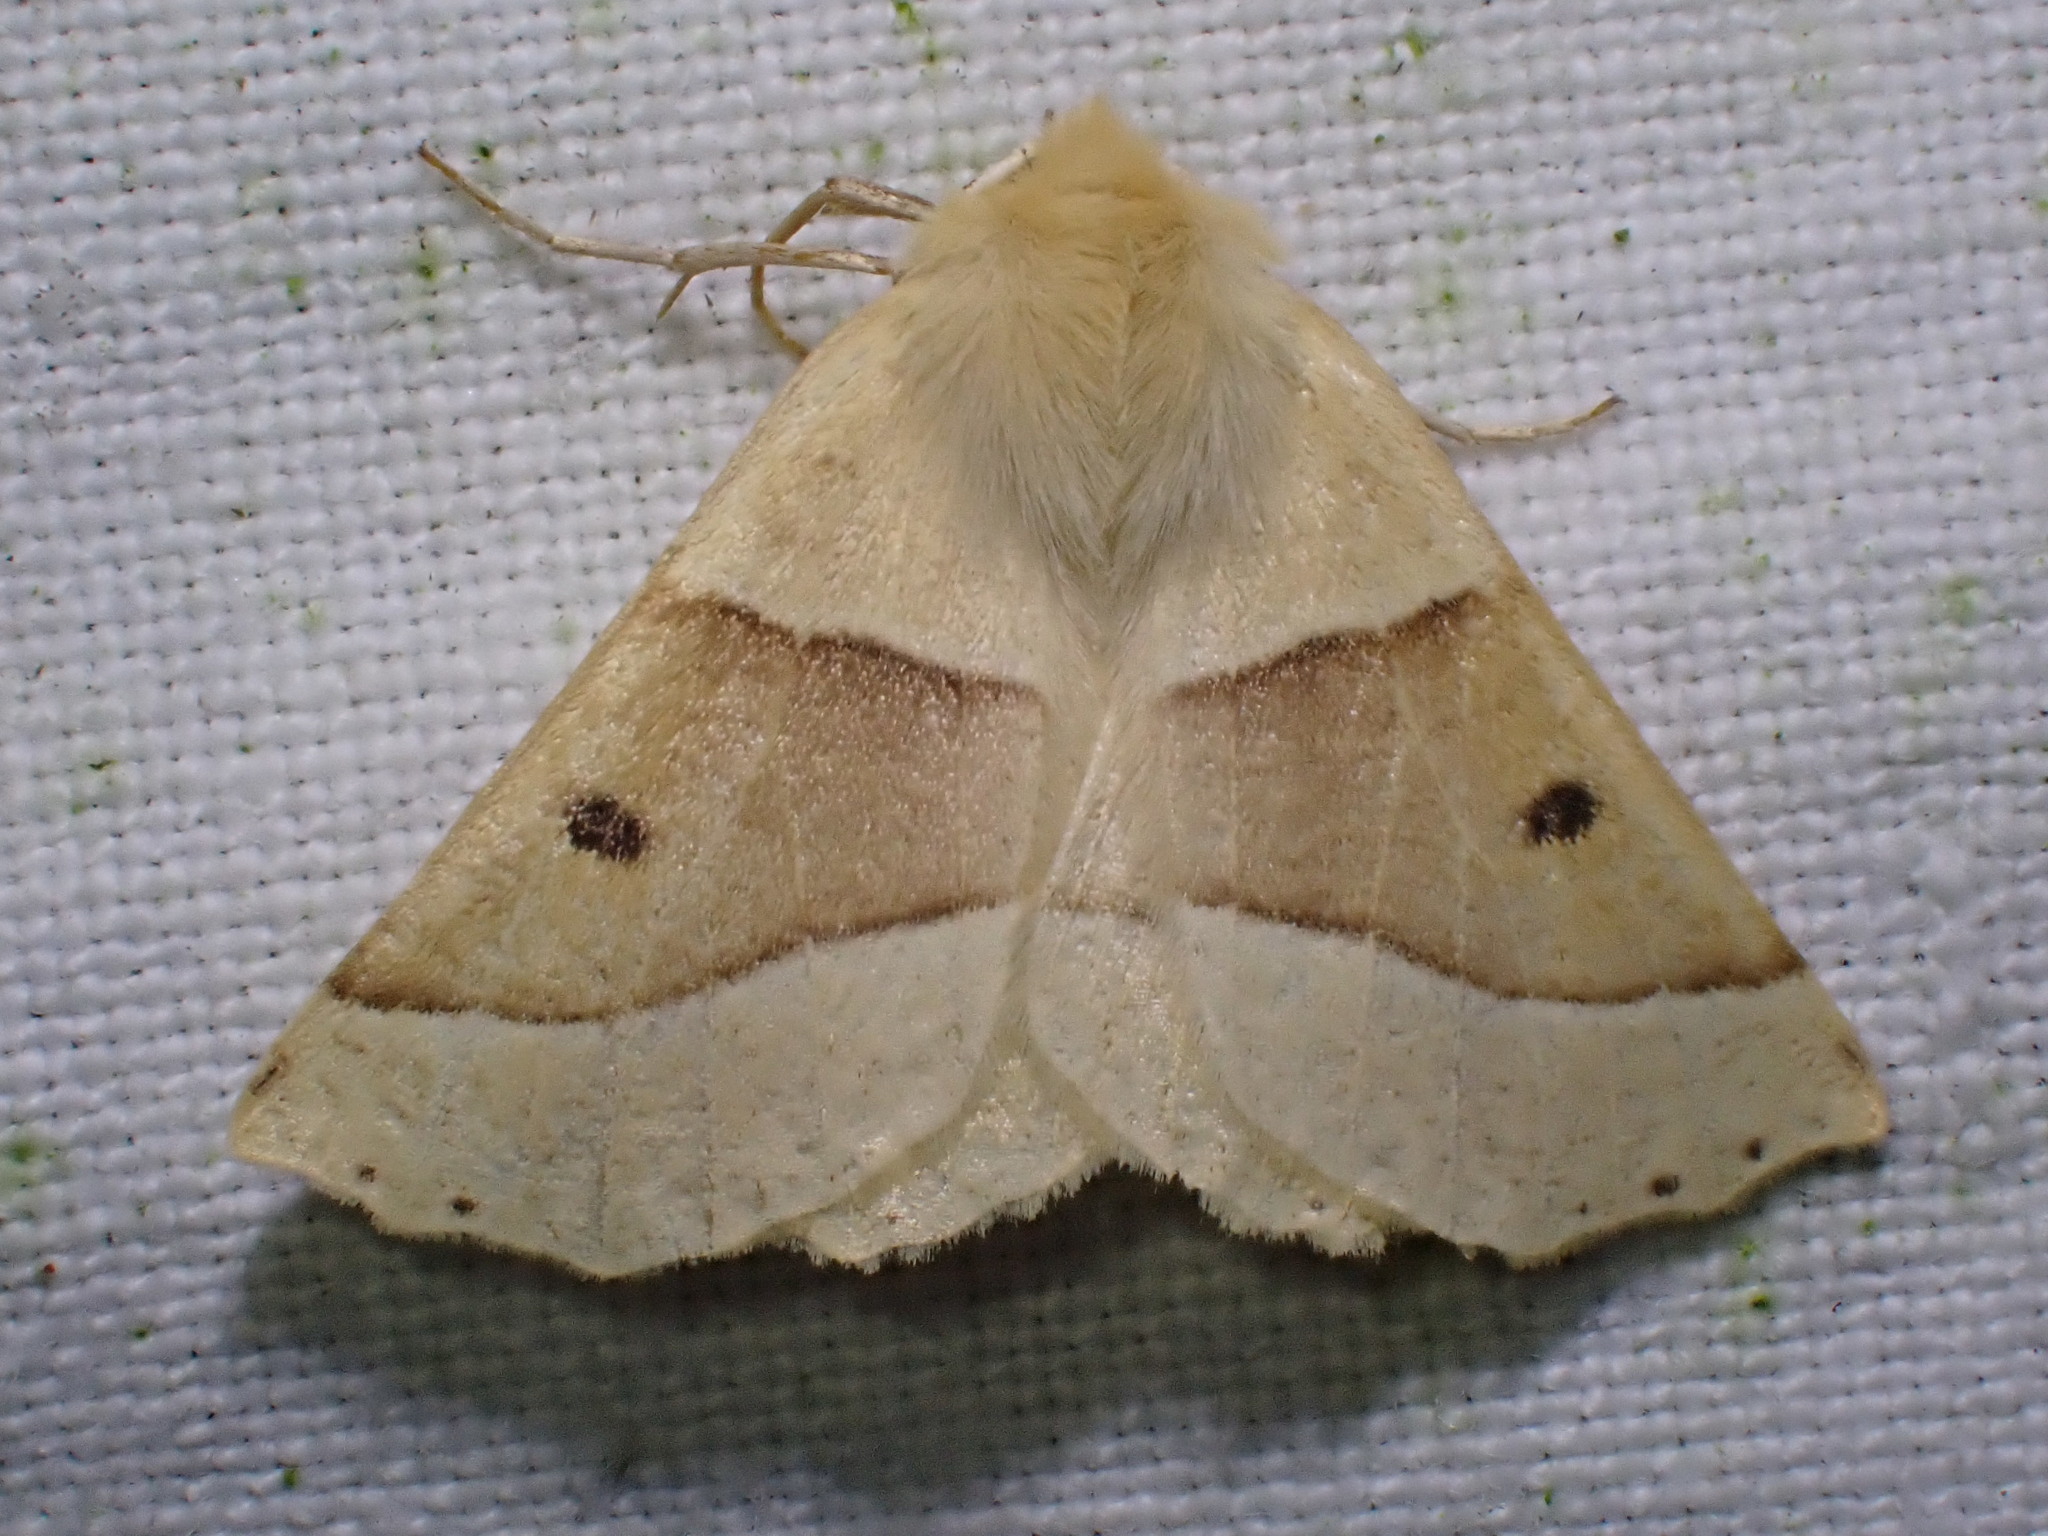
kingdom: Animalia
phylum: Arthropoda
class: Insecta
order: Lepidoptera
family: Geometridae
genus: Crocallis
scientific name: Crocallis elinguaria
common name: Scalloped oak
